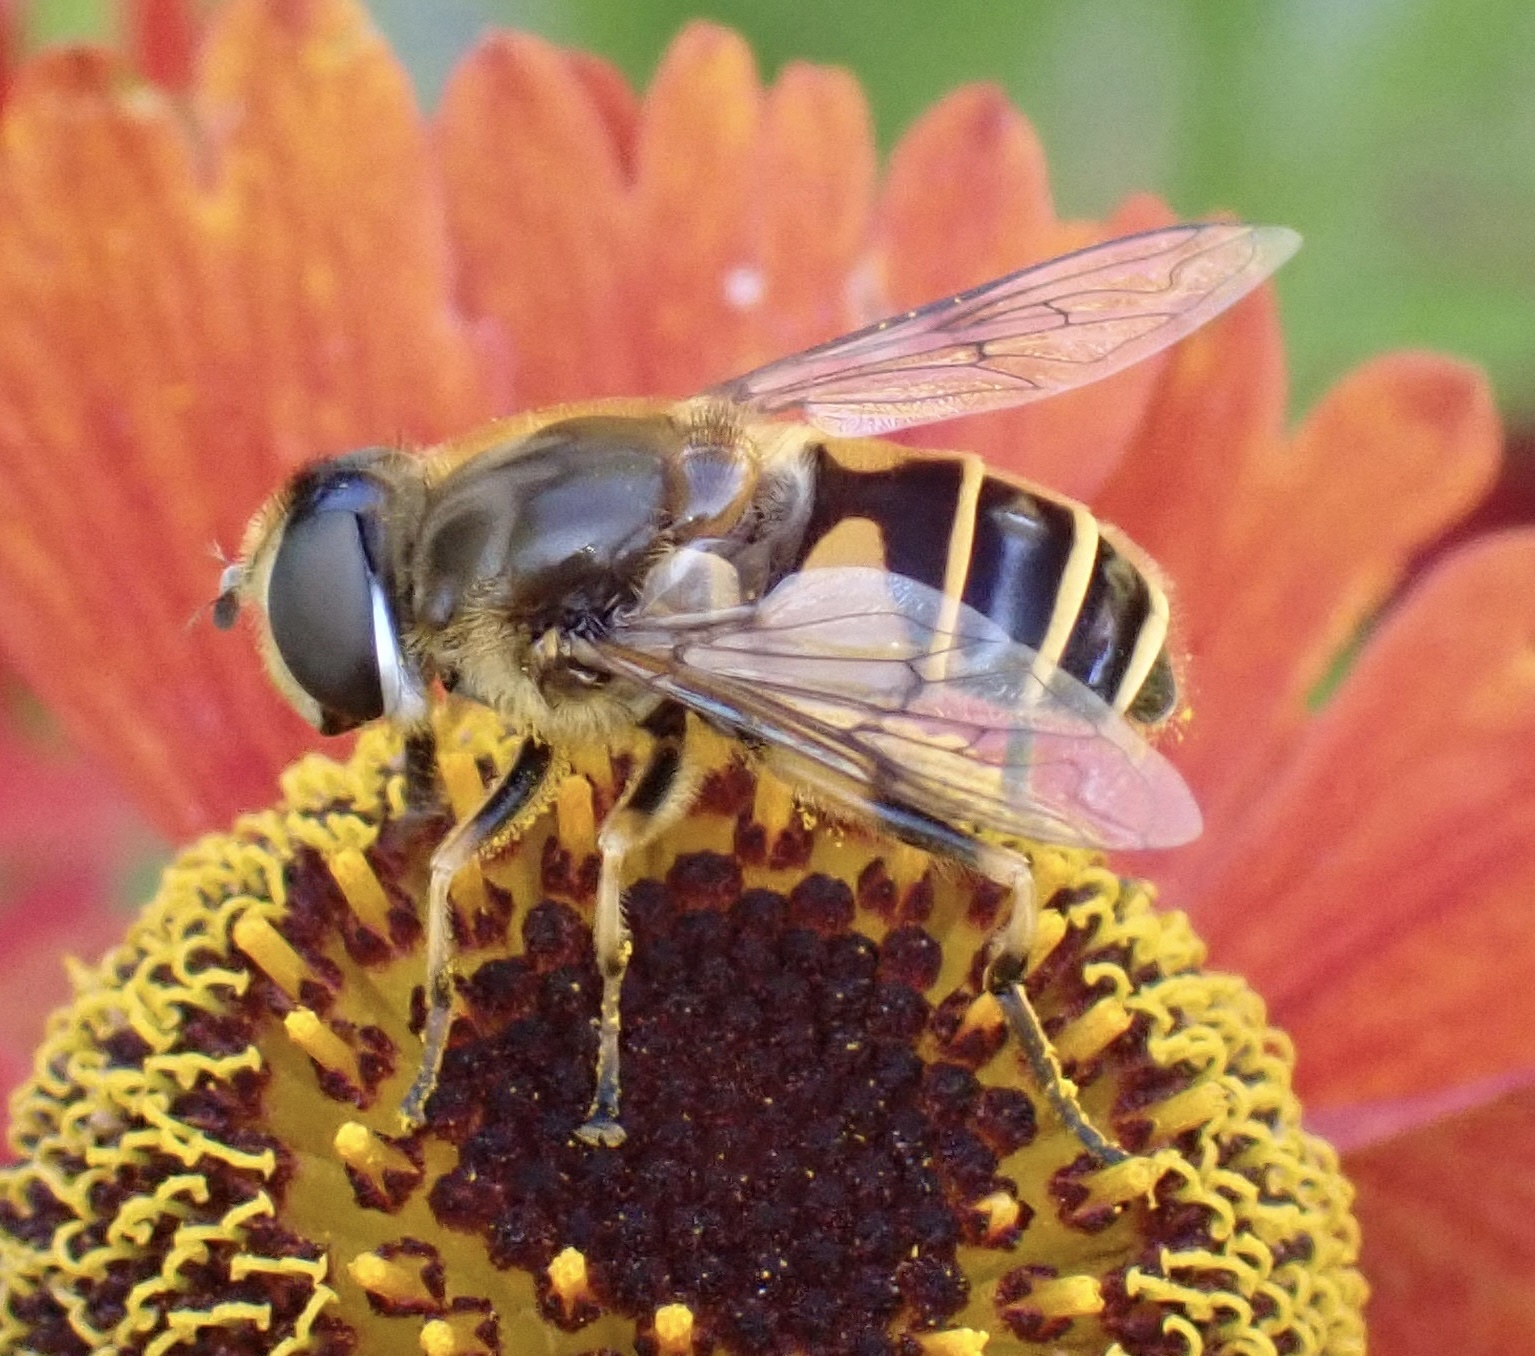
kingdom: Animalia
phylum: Arthropoda
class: Insecta
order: Diptera
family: Syrphidae
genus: Cheilosia
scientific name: Cheilosia morio
